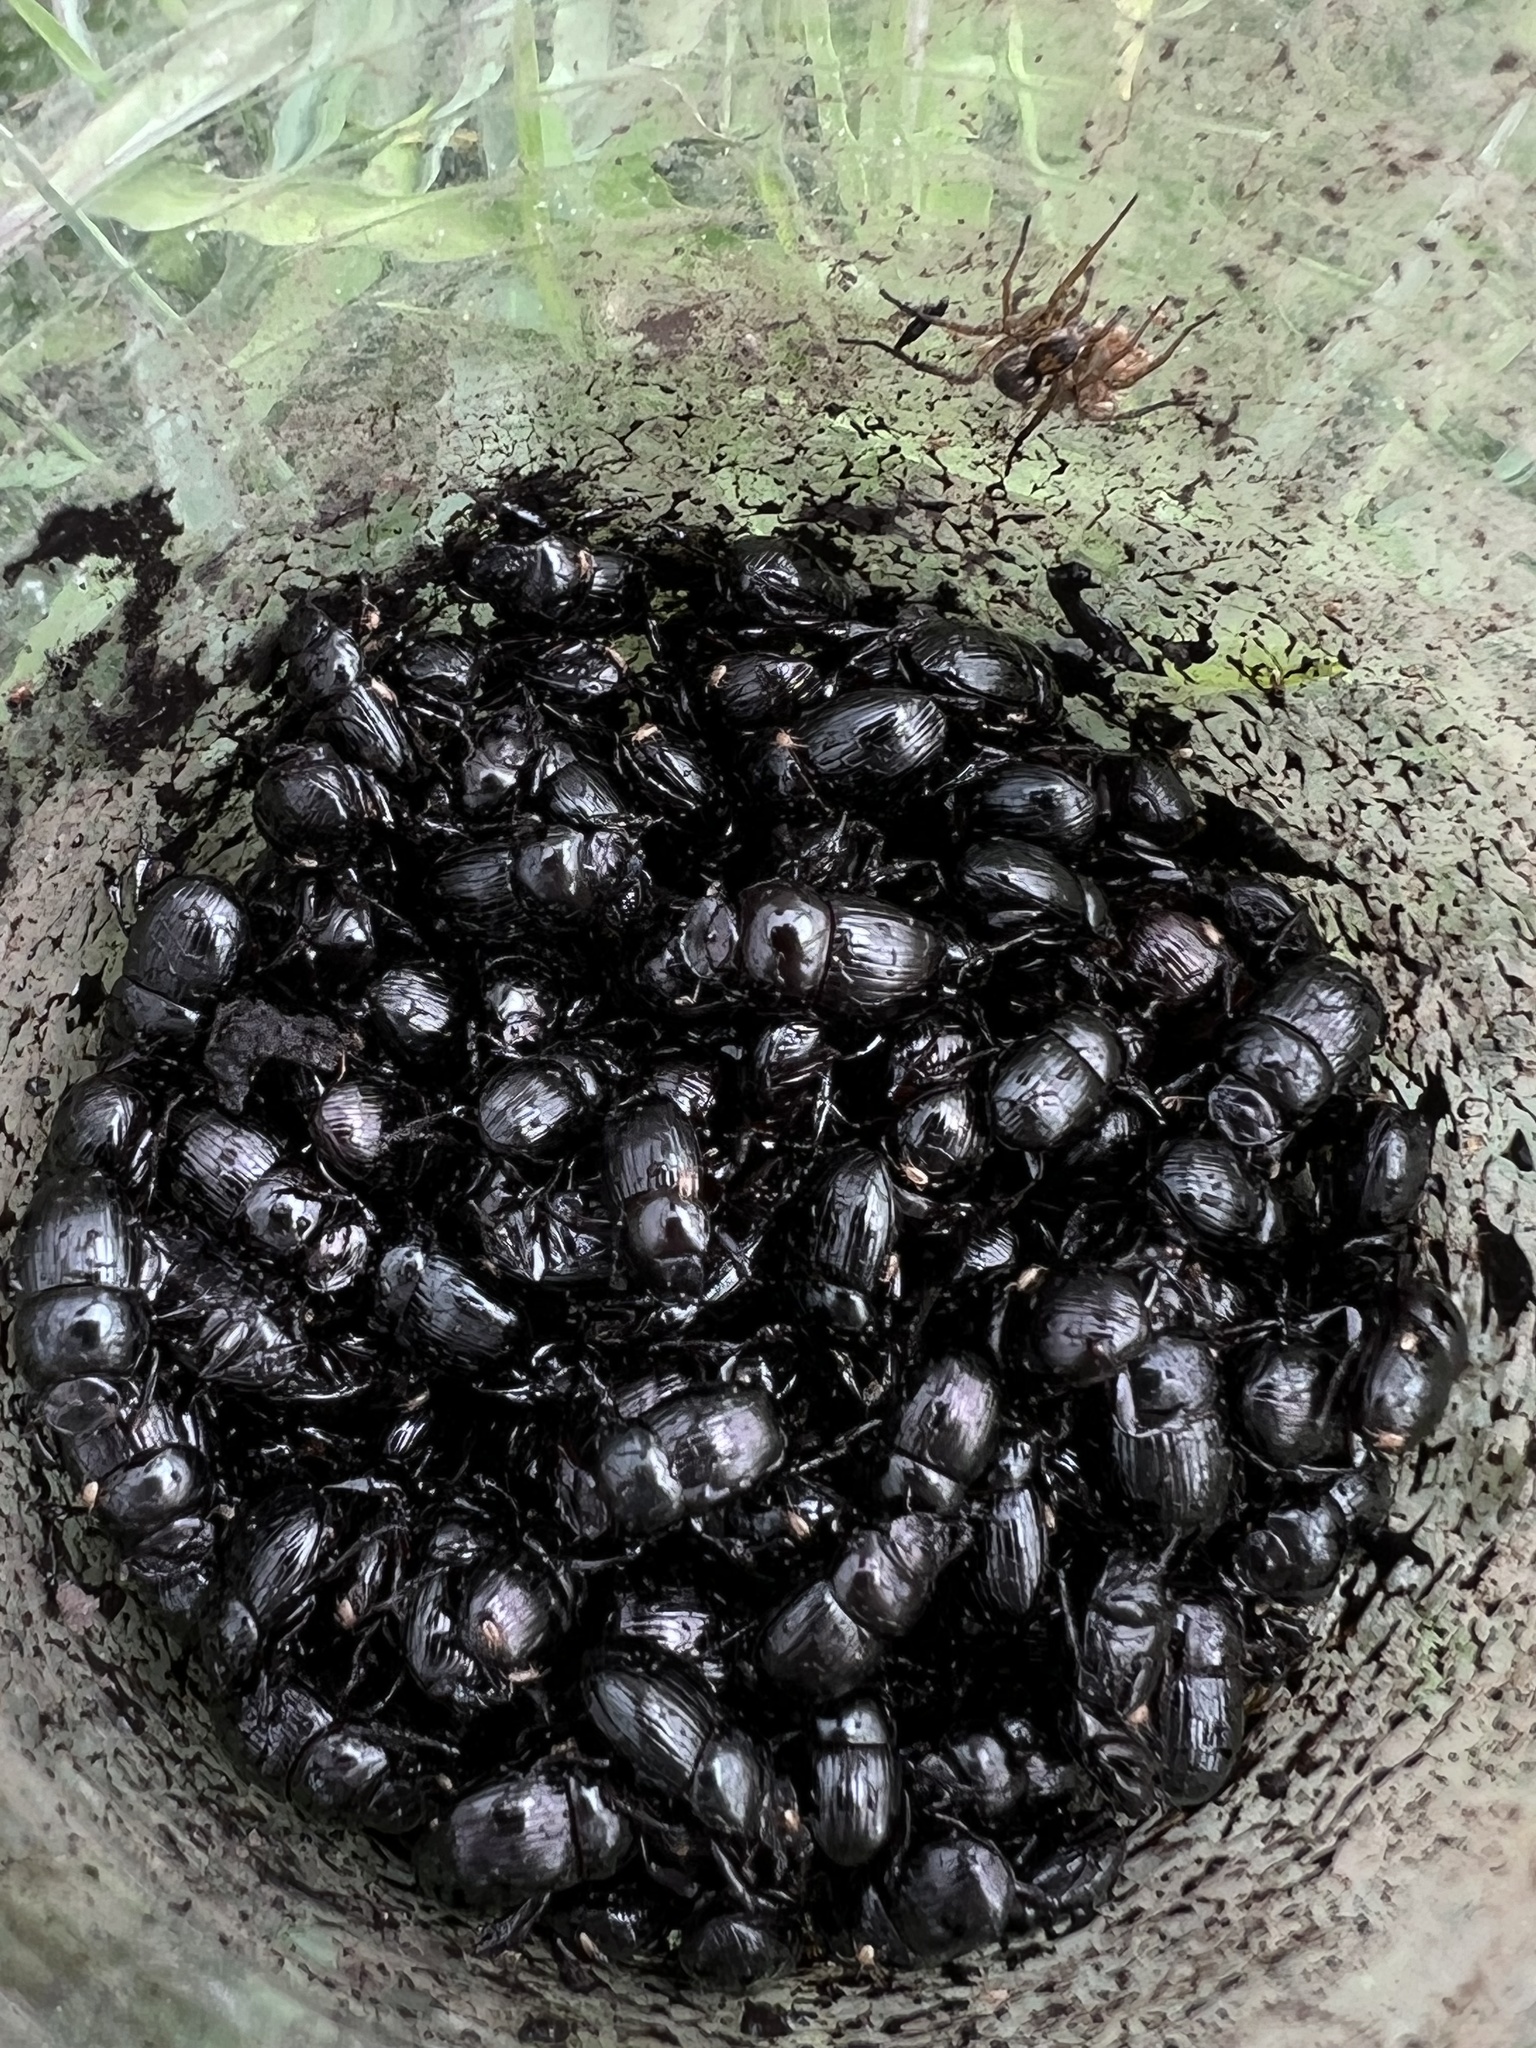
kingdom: Animalia
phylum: Arthropoda
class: Insecta
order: Coleoptera
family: Scarabaeidae
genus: Uroxys
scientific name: Uroxys coarctatus
